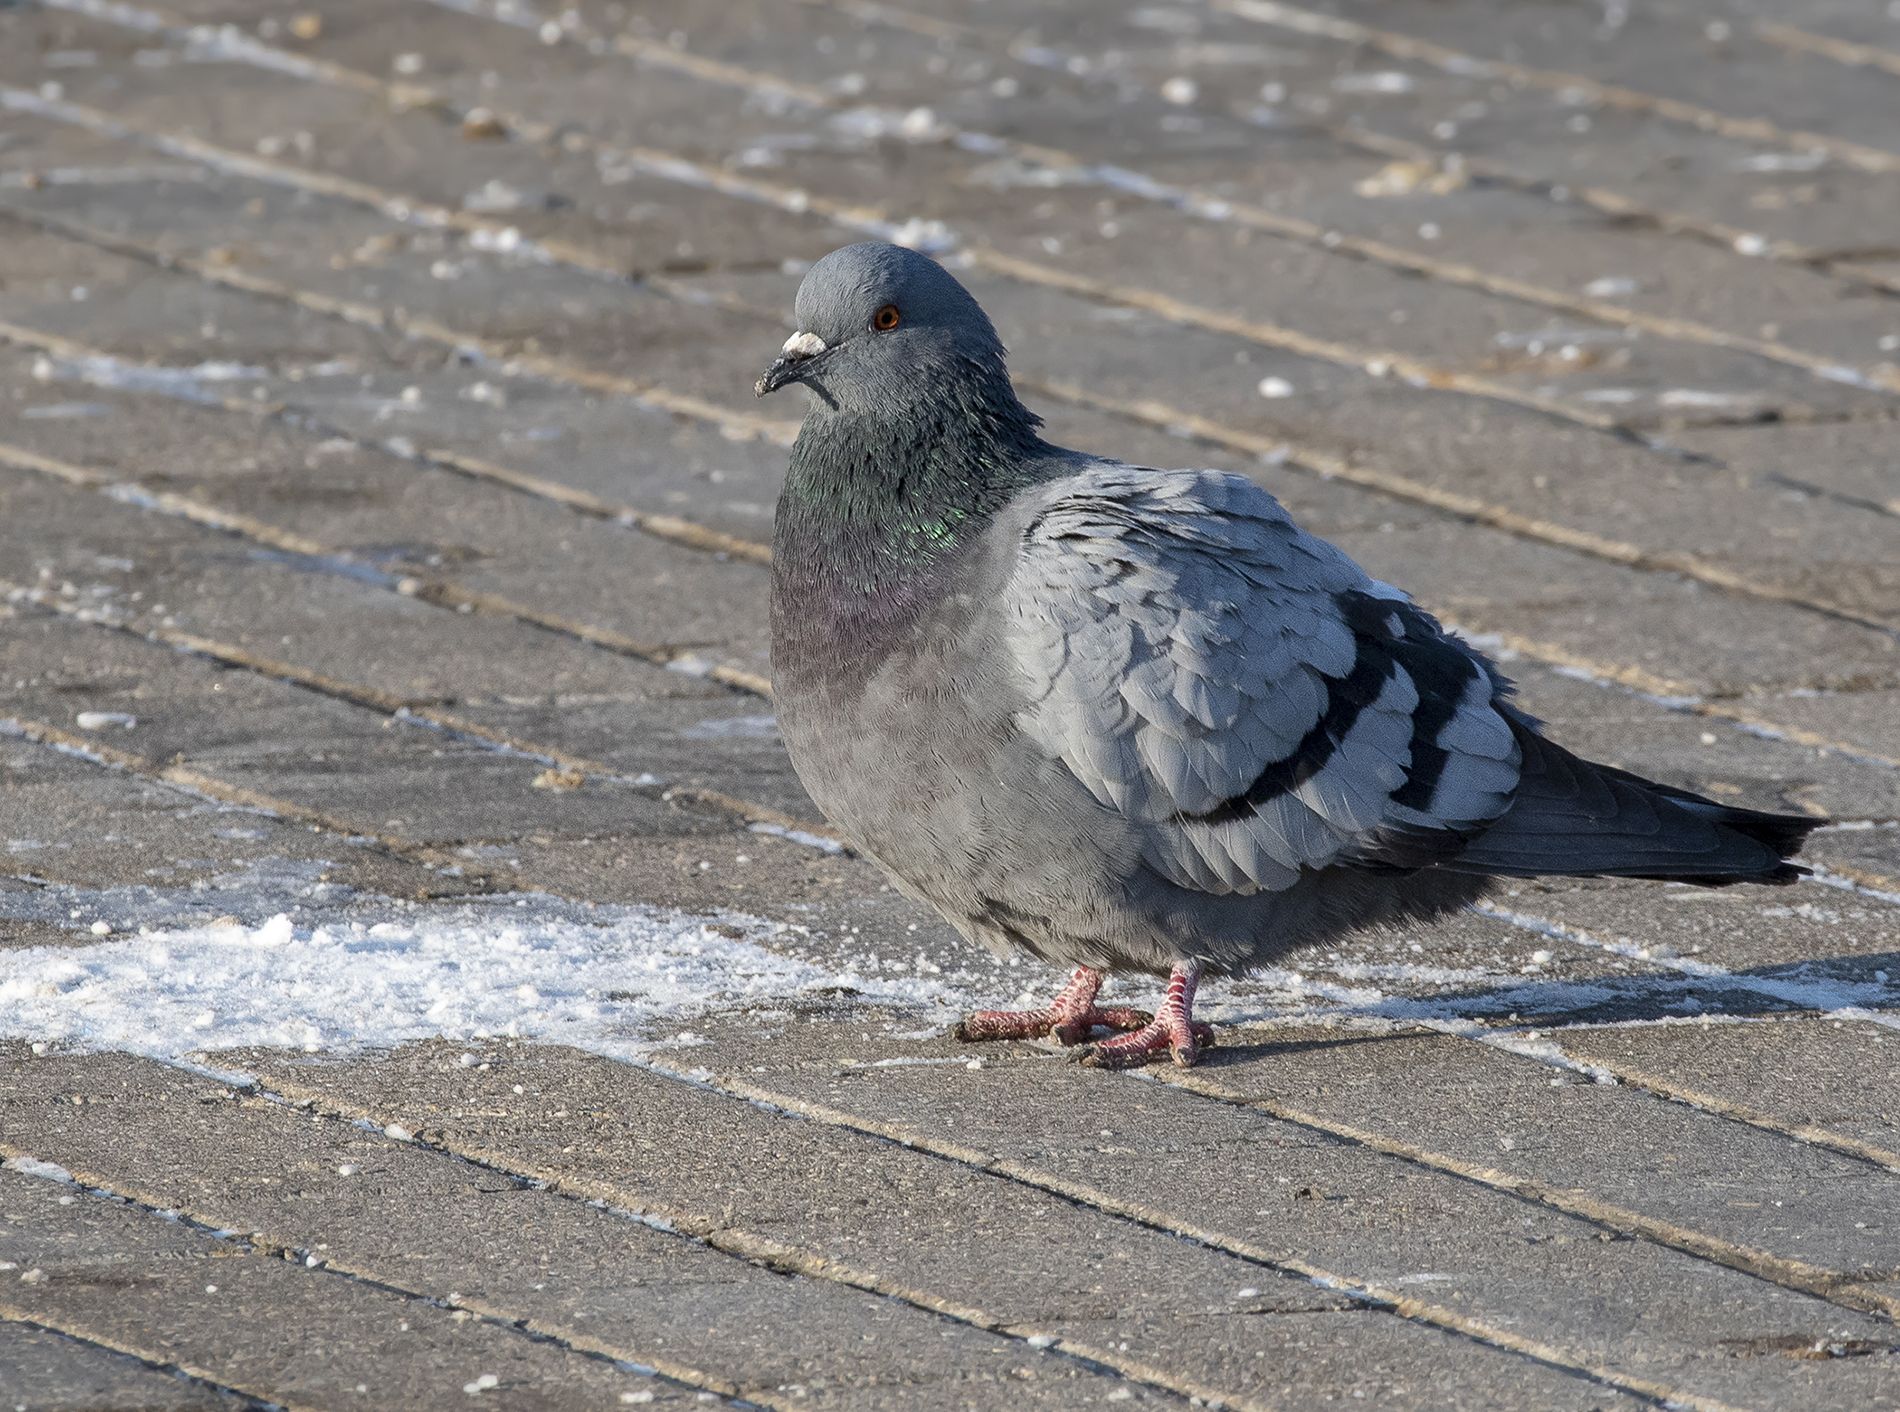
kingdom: Animalia
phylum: Chordata
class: Aves
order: Columbiformes
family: Columbidae
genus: Columba
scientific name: Columba livia
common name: Rock pigeon
